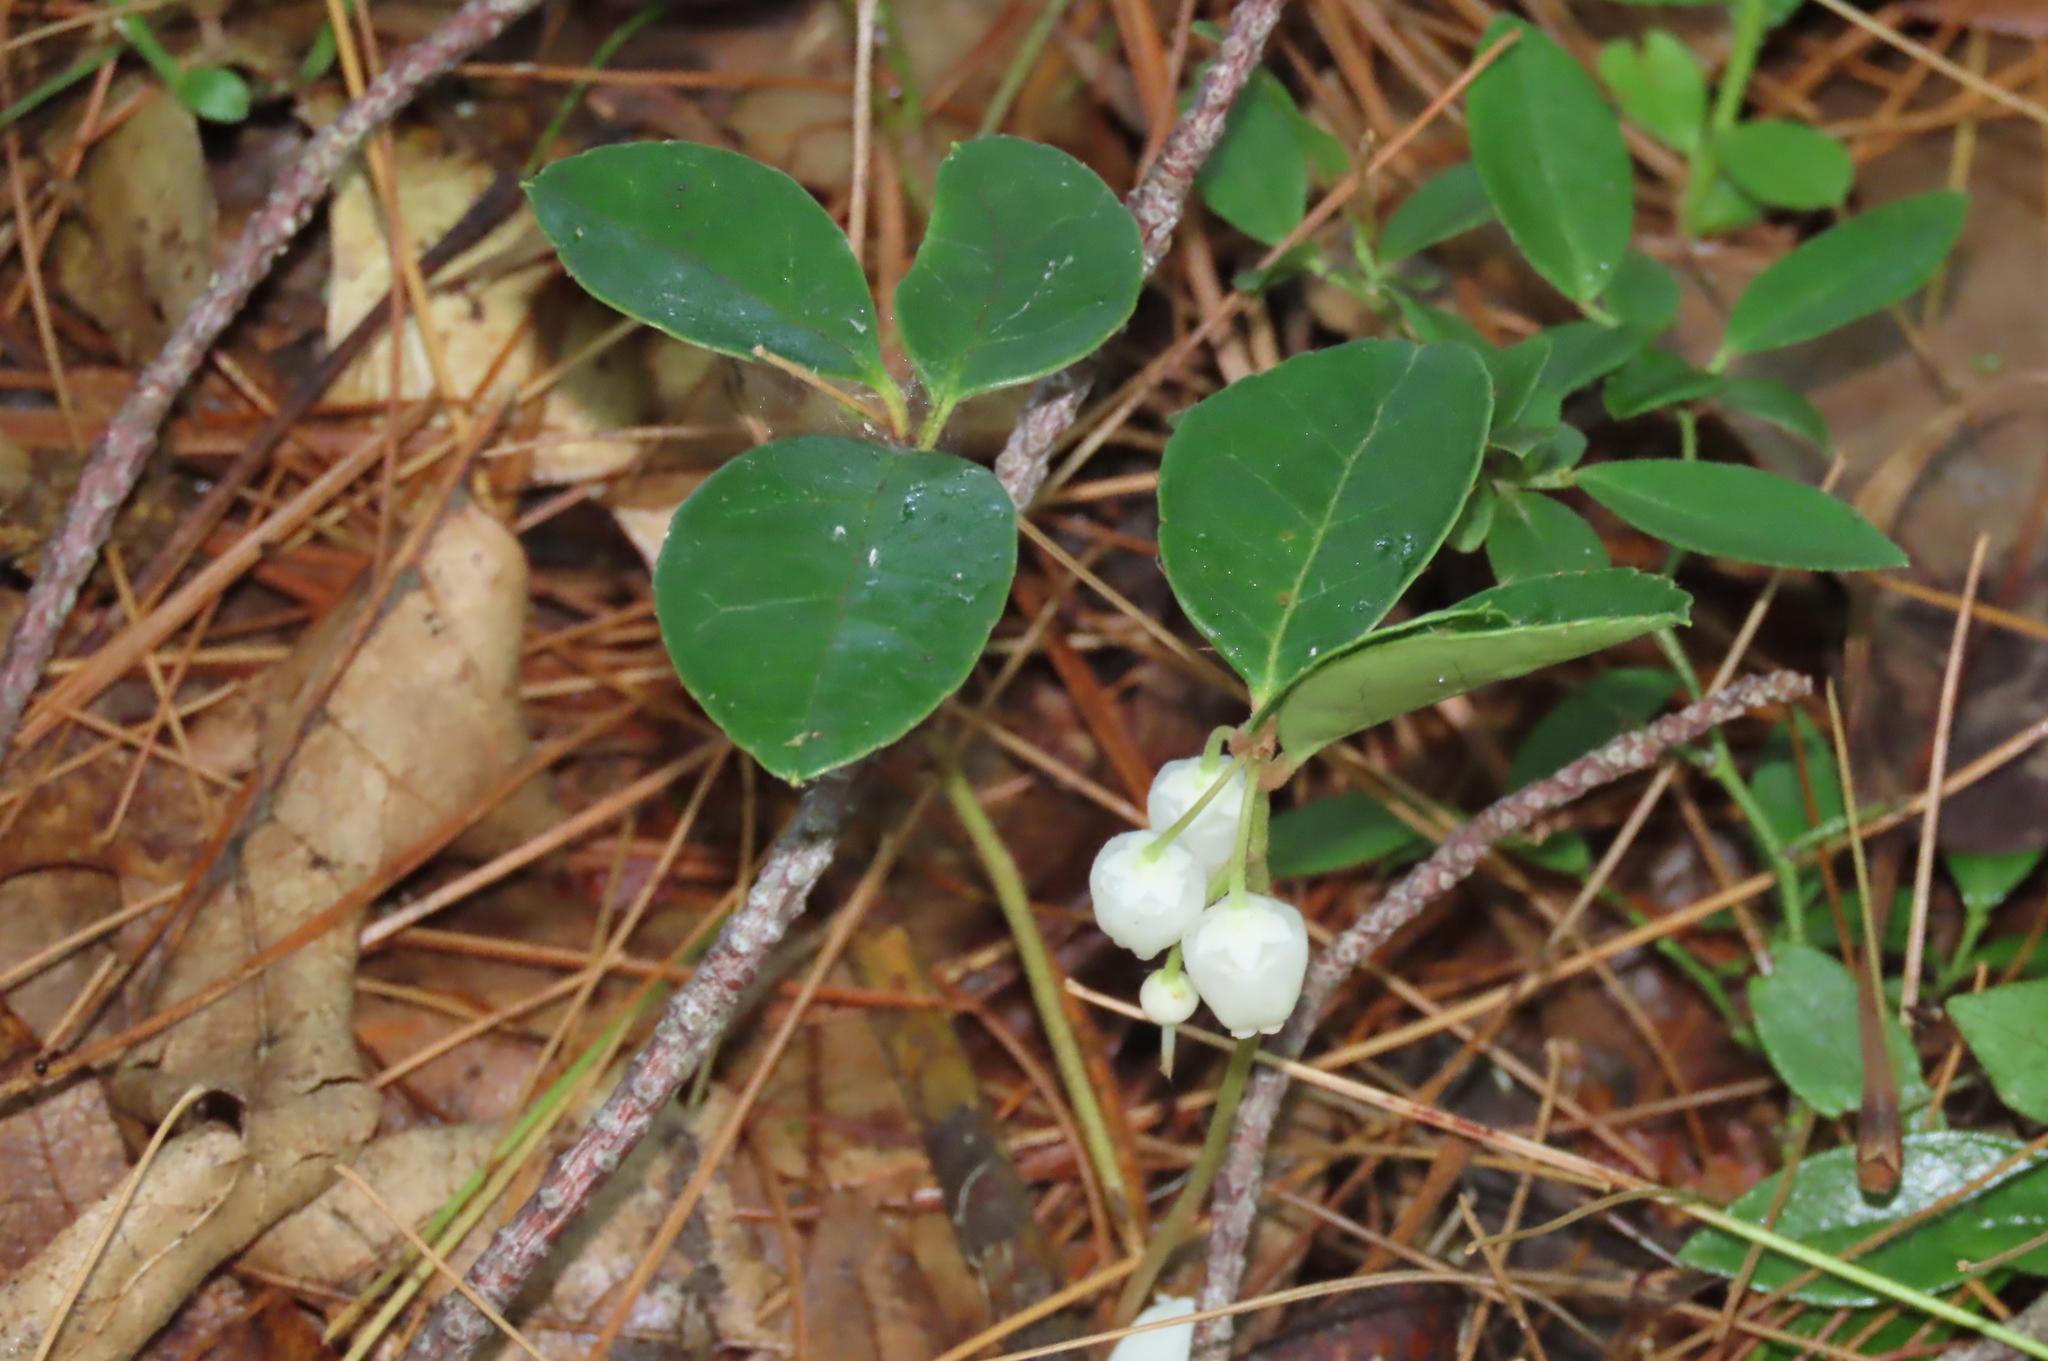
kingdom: Plantae
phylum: Tracheophyta
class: Magnoliopsida
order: Ericales
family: Ericaceae
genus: Gaultheria
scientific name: Gaultheria procumbens
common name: Checkerberry
